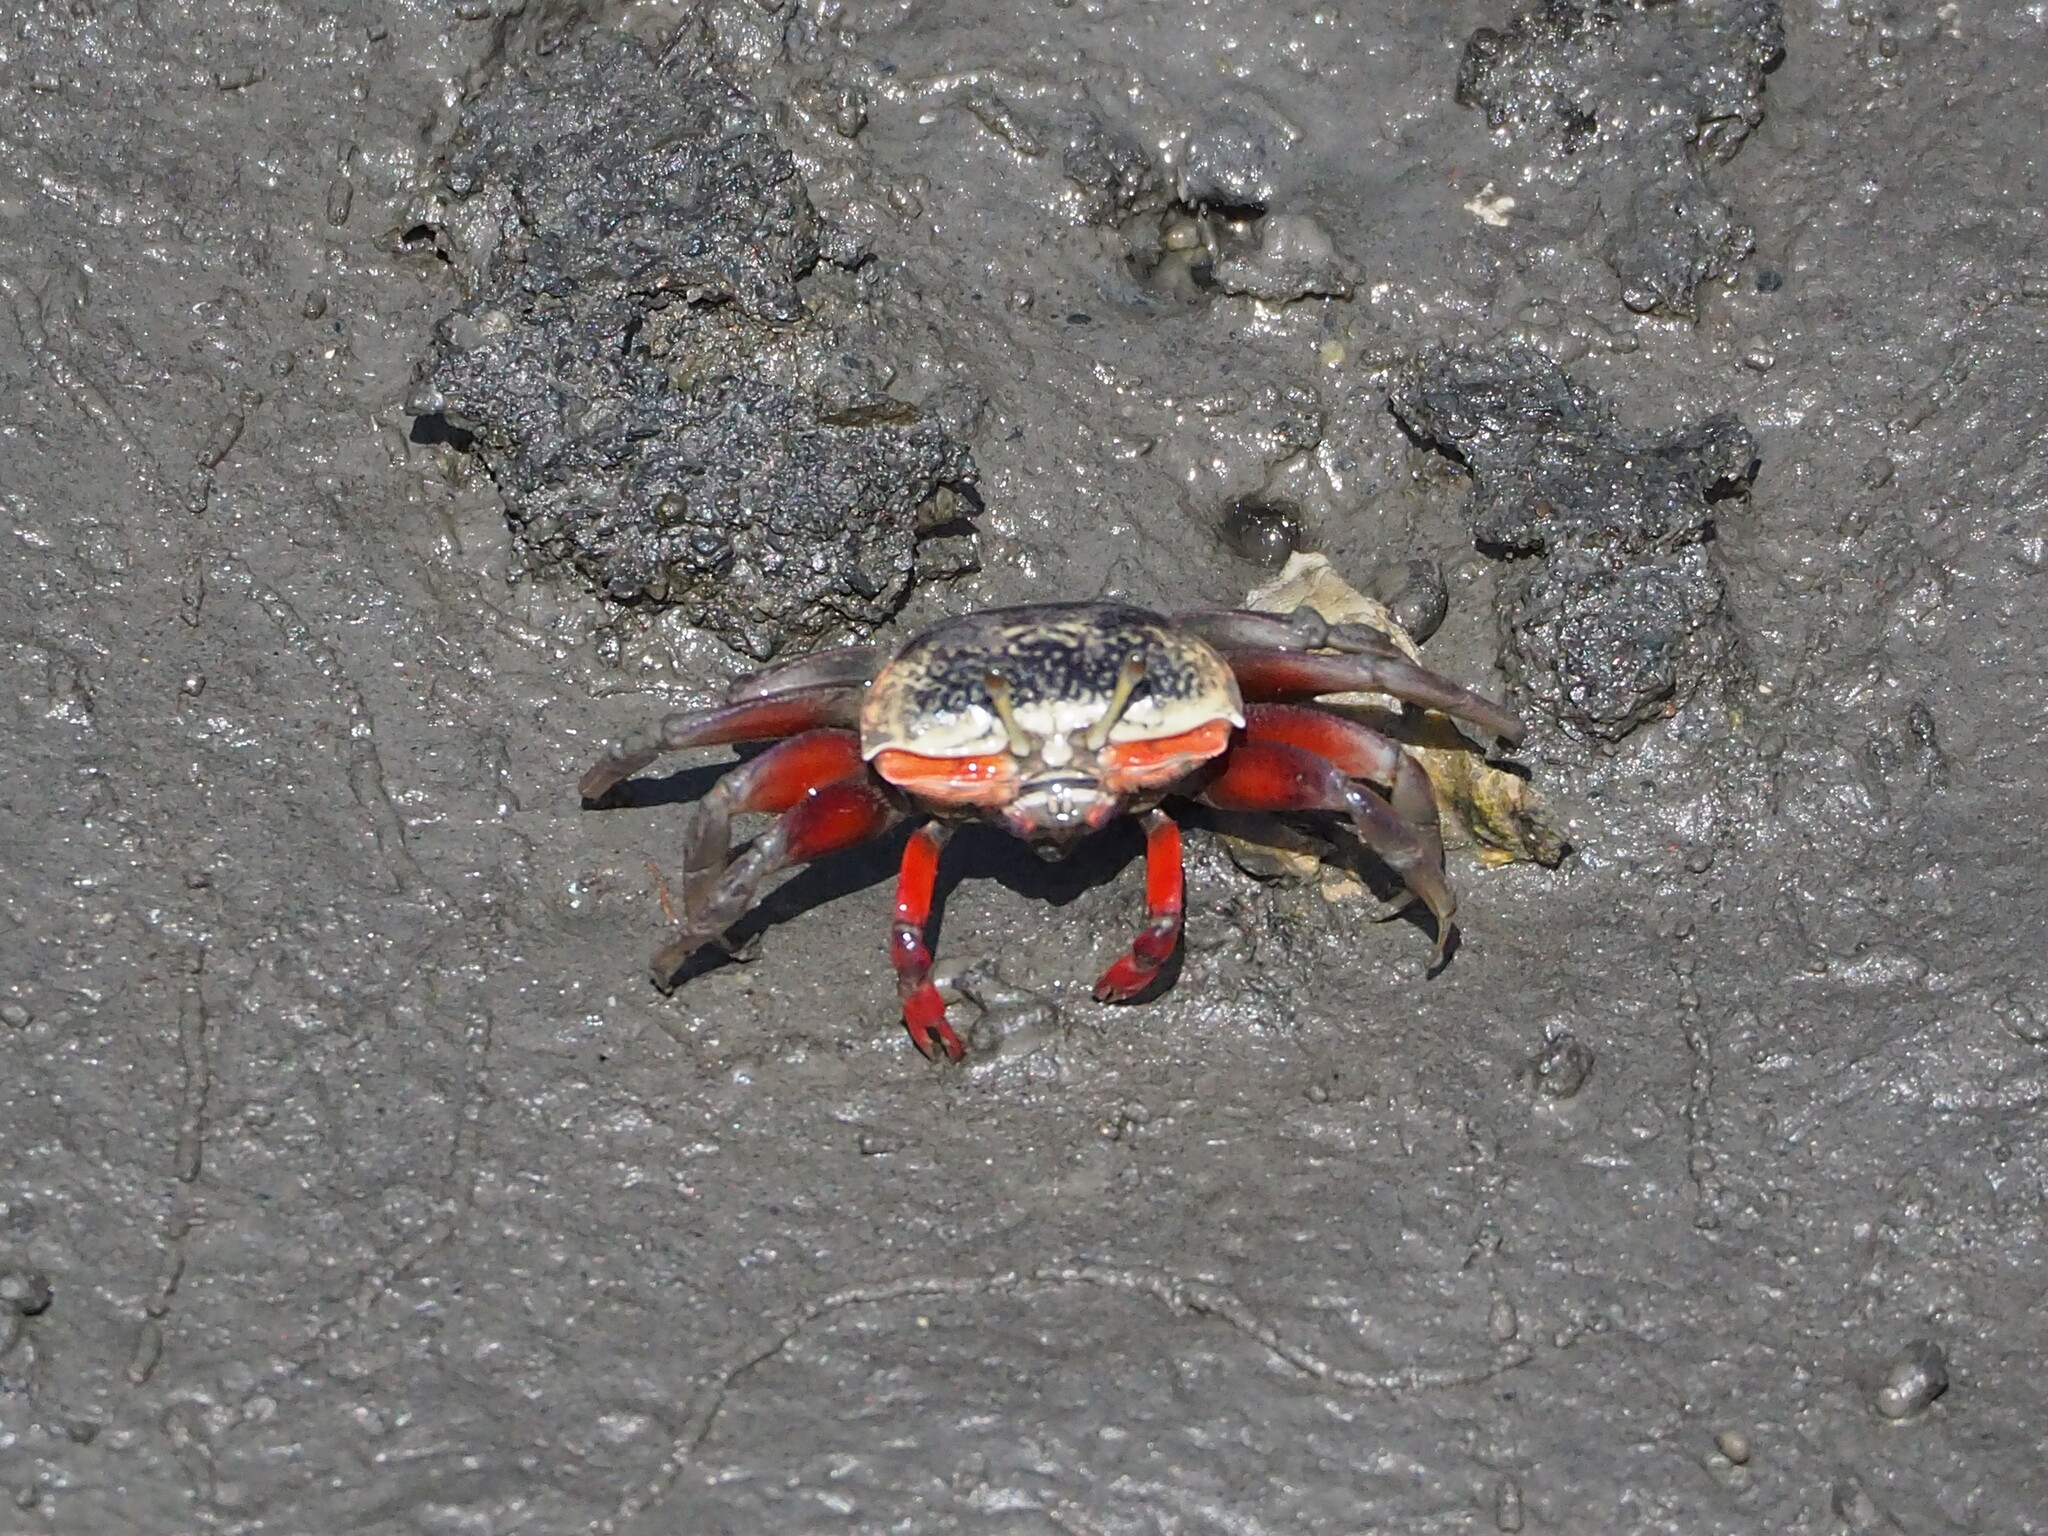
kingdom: Animalia
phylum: Arthropoda
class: Malacostraca
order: Decapoda
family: Ocypodidae
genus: Tubuca
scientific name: Tubuca arcuata
